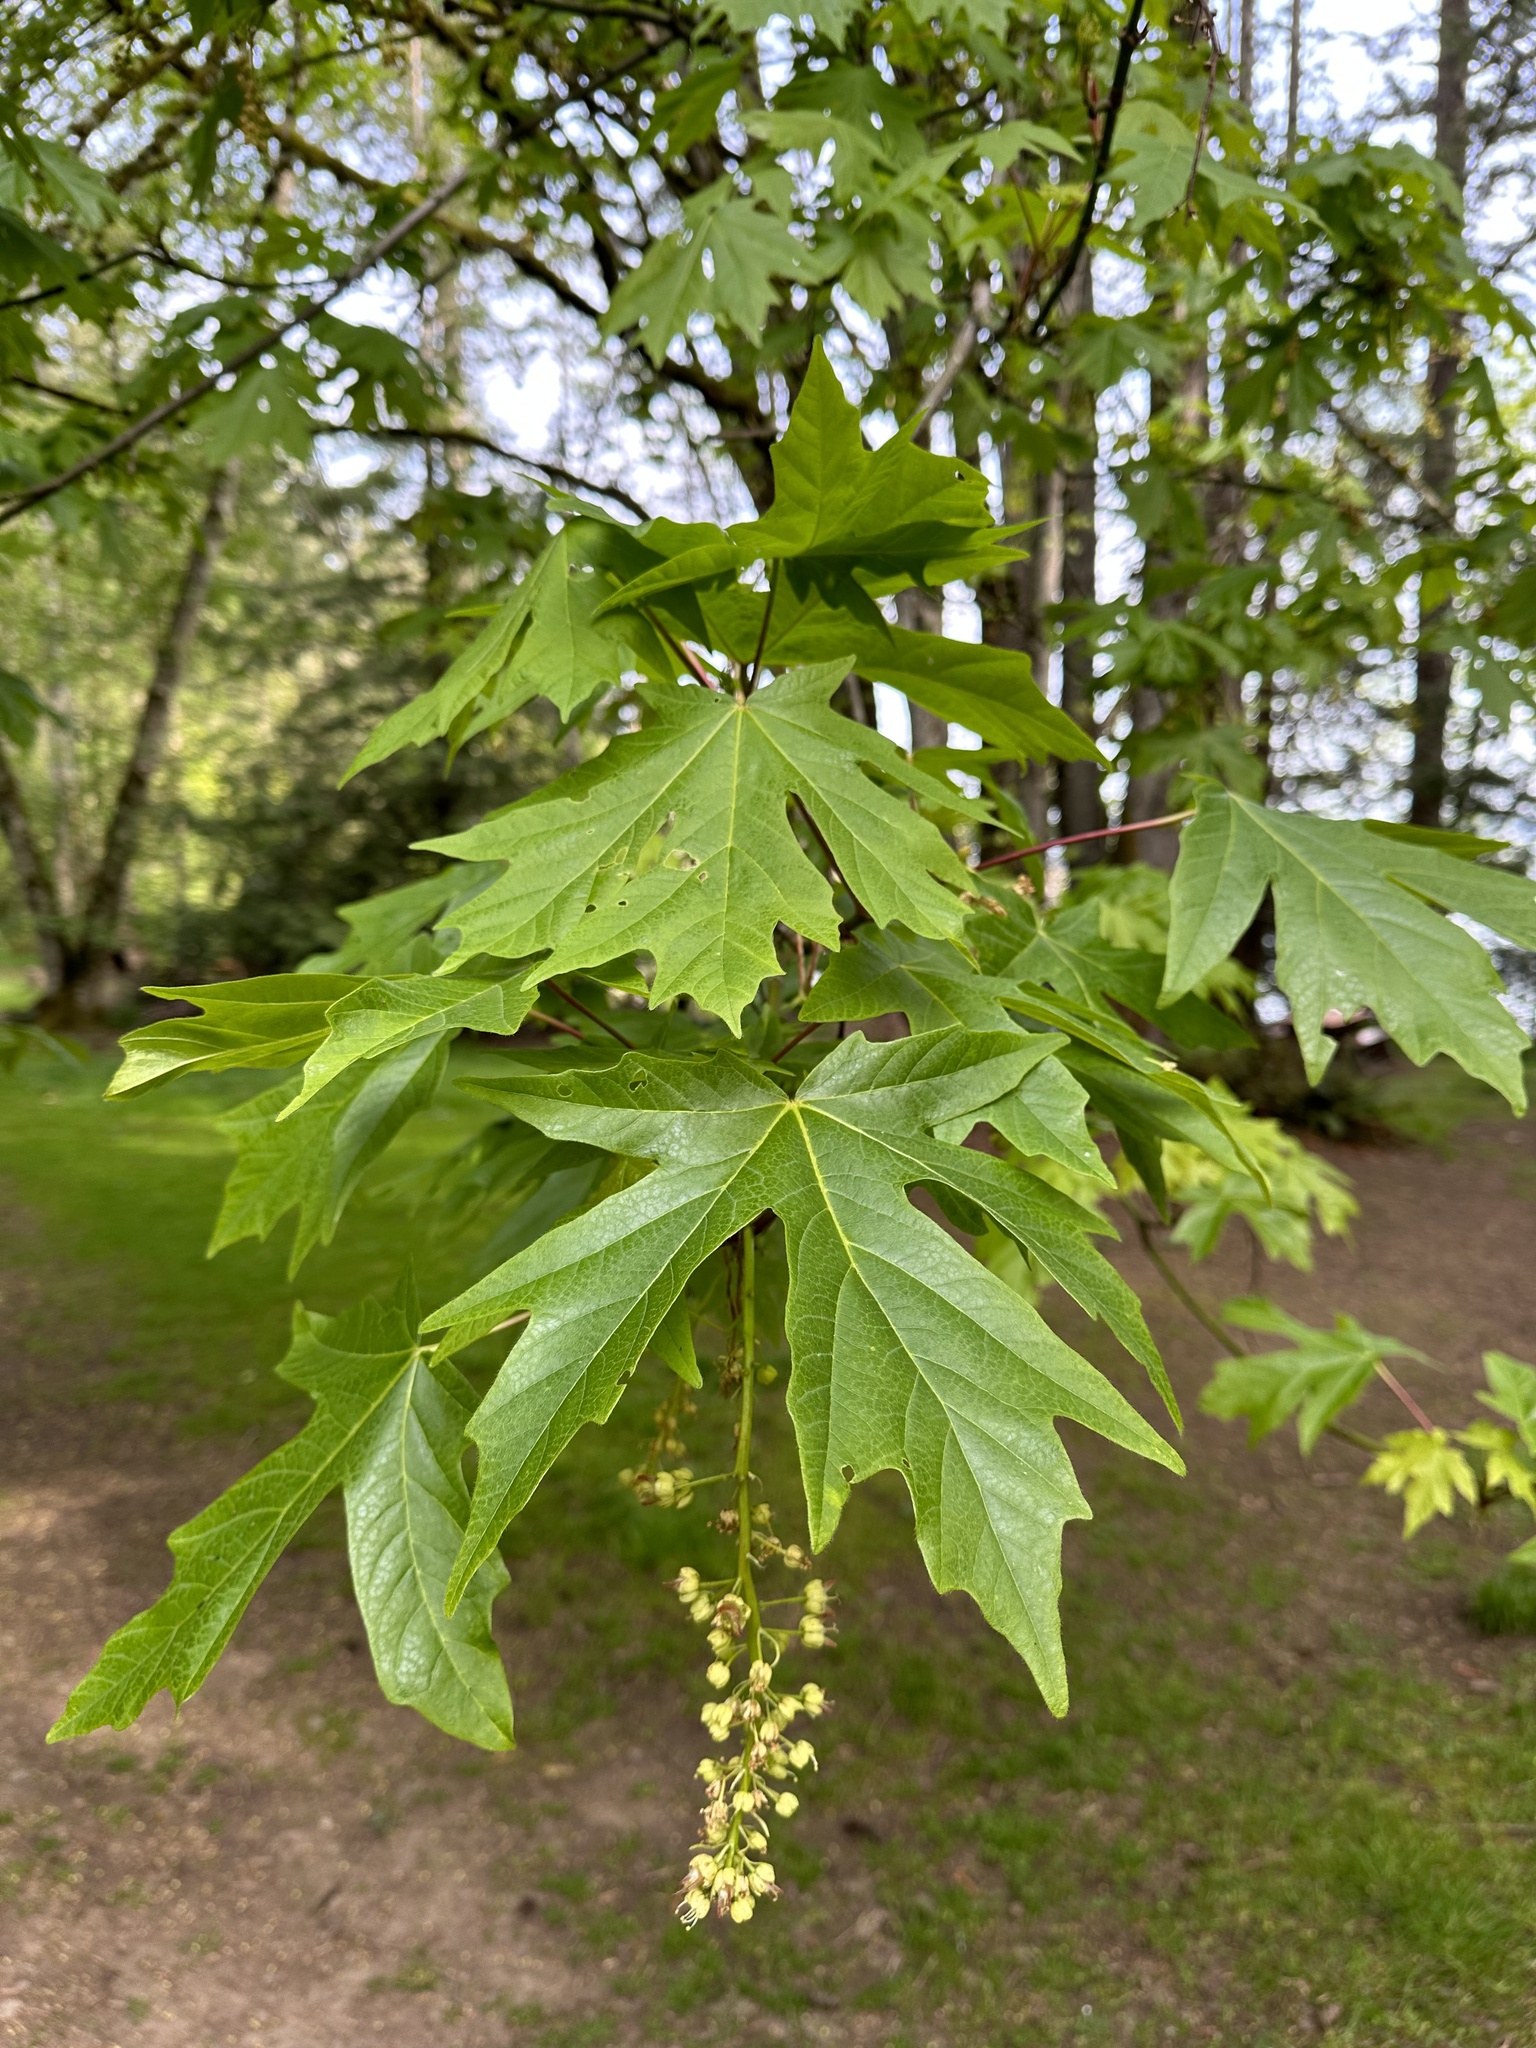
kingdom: Plantae
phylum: Tracheophyta
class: Magnoliopsida
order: Sapindales
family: Sapindaceae
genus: Acer
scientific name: Acer macrophyllum
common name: Oregon maple
